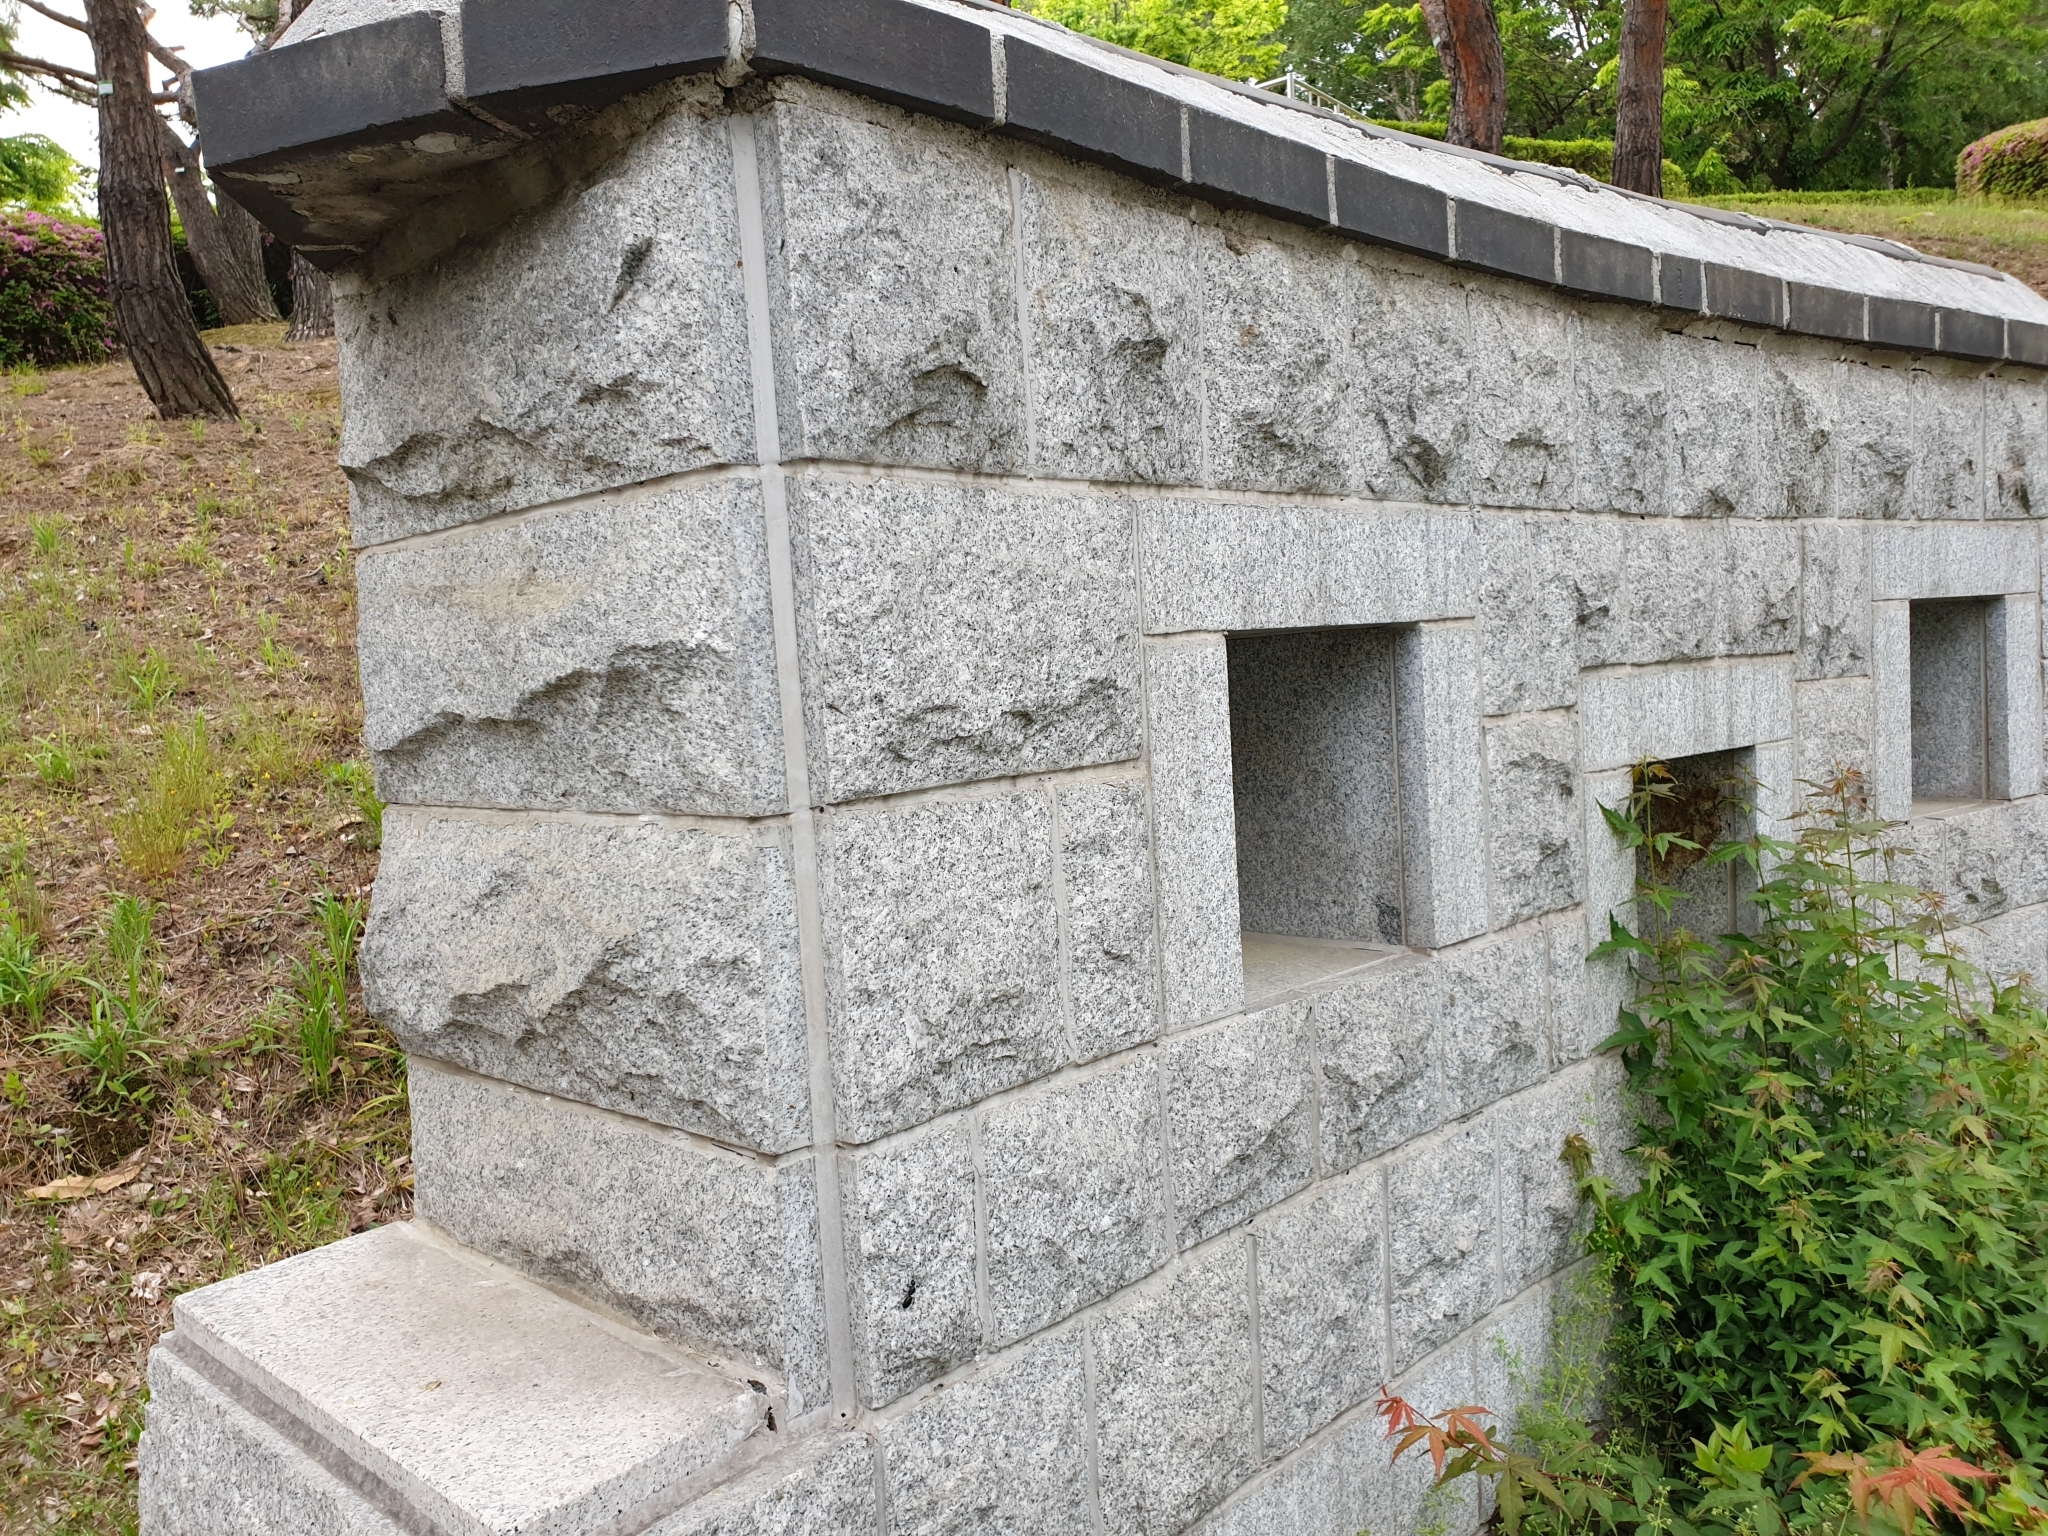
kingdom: Animalia
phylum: Arthropoda
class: Insecta
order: Hymenoptera
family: Formicidae
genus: Camponotus
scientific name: Camponotus japonicus
